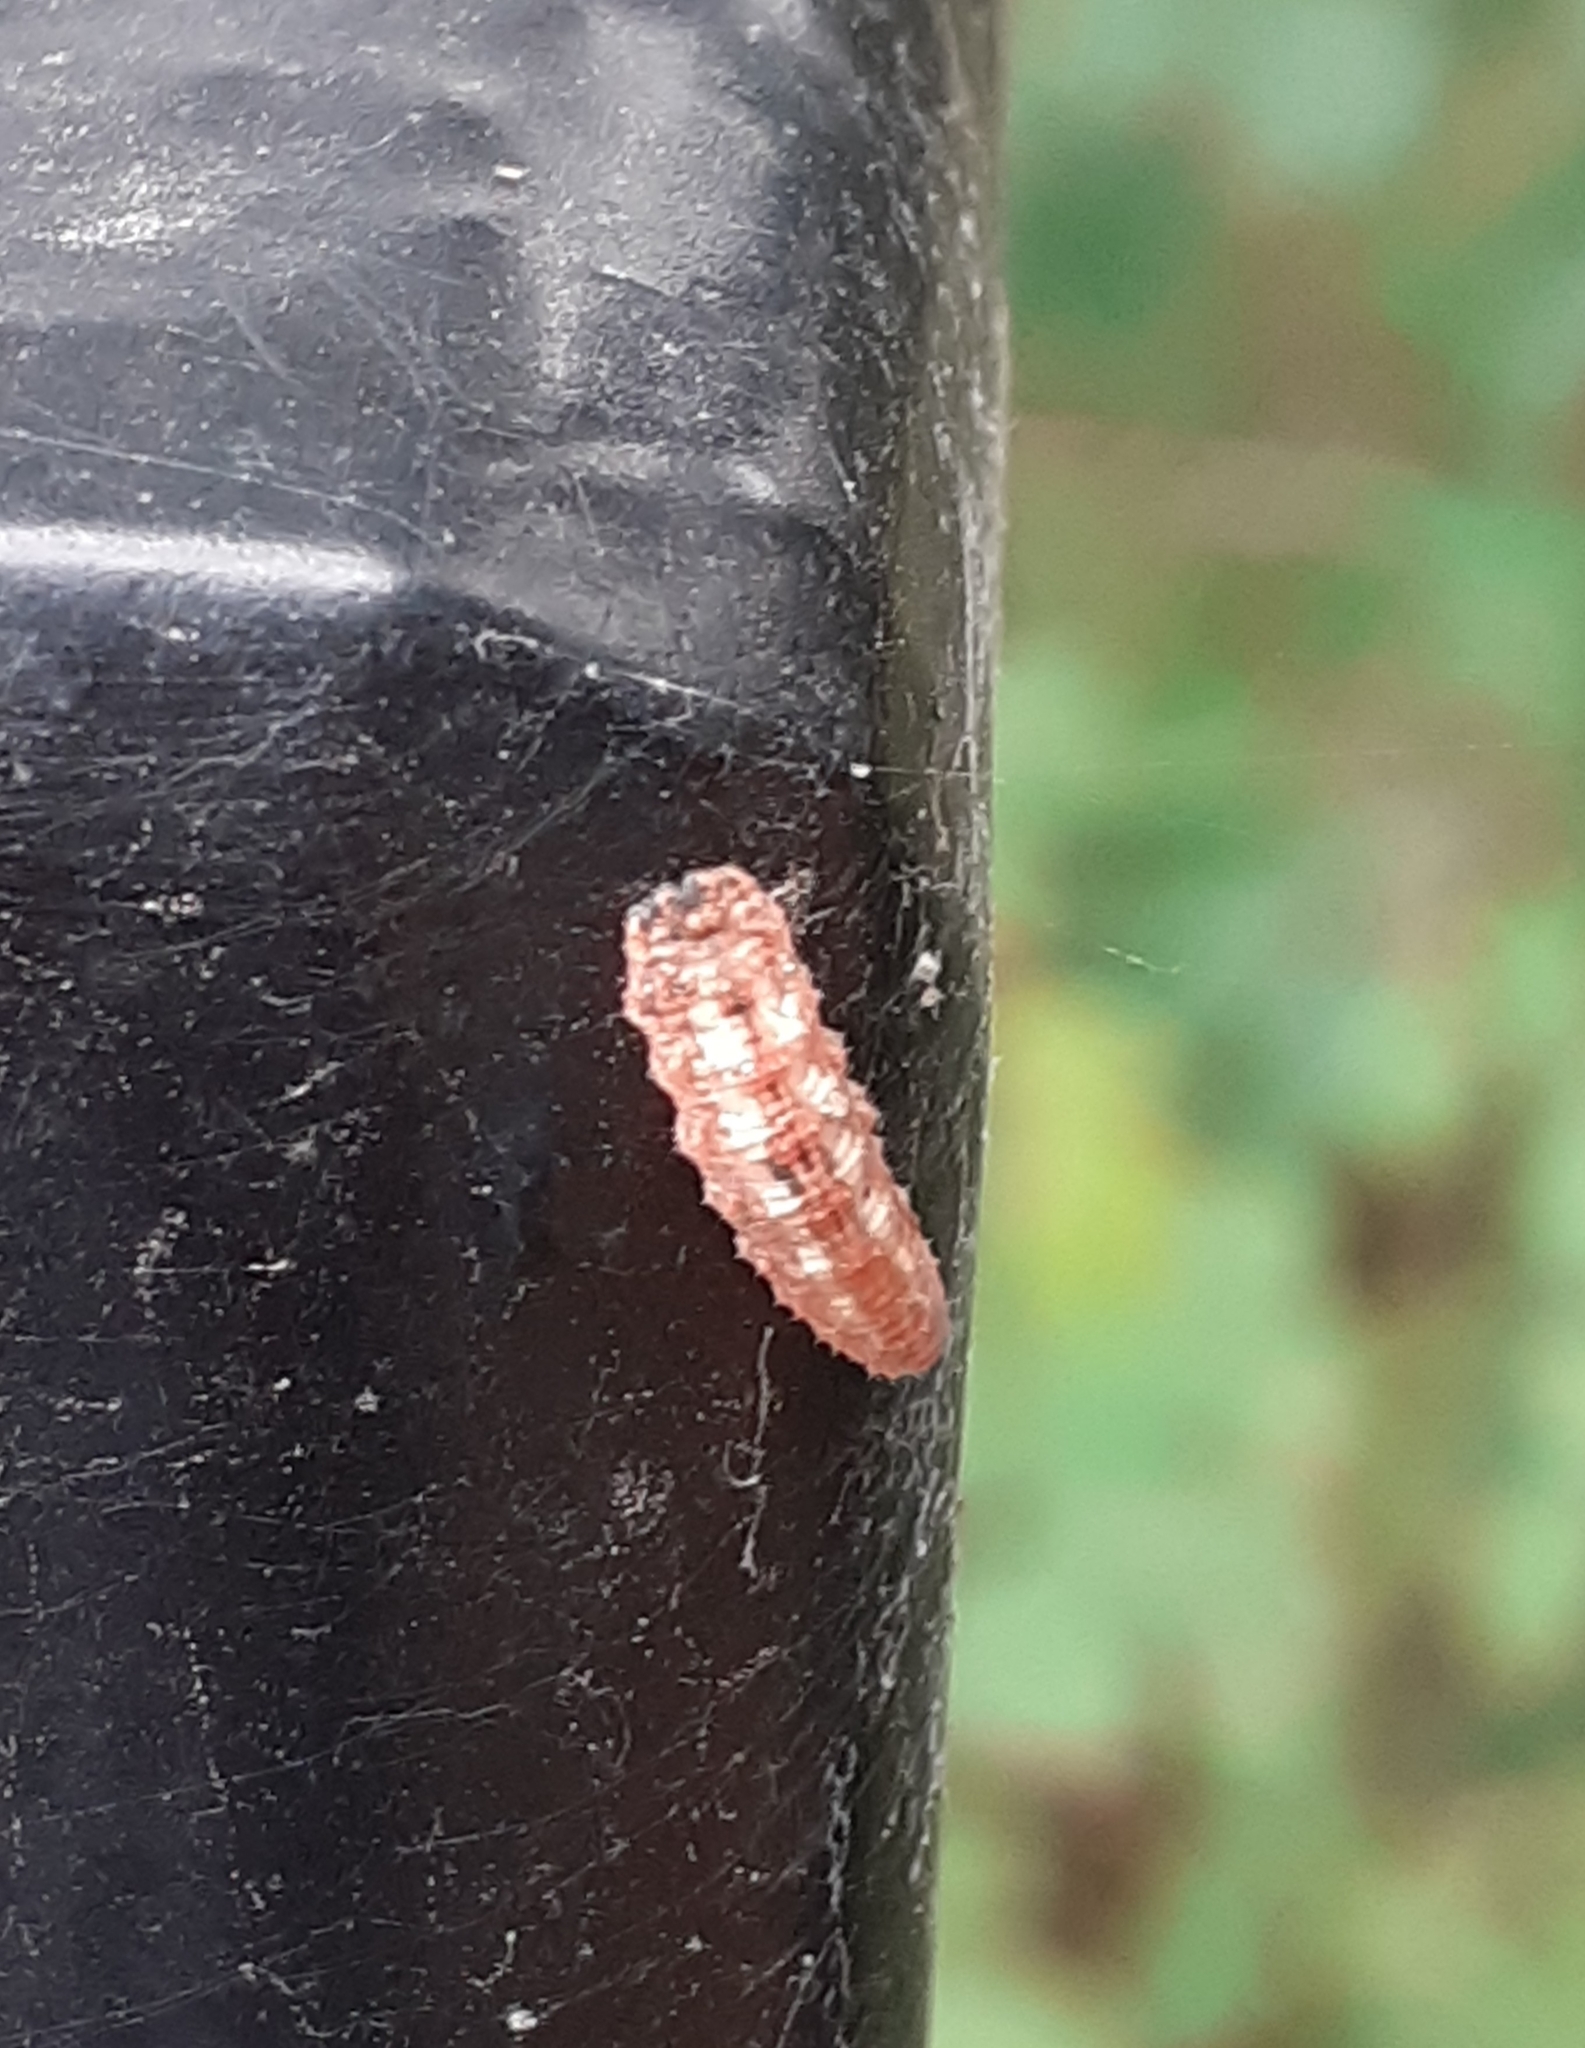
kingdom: Animalia
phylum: Arthropoda
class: Insecta
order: Diptera
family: Syrphidae
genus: Syrphus
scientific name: Syrphus
